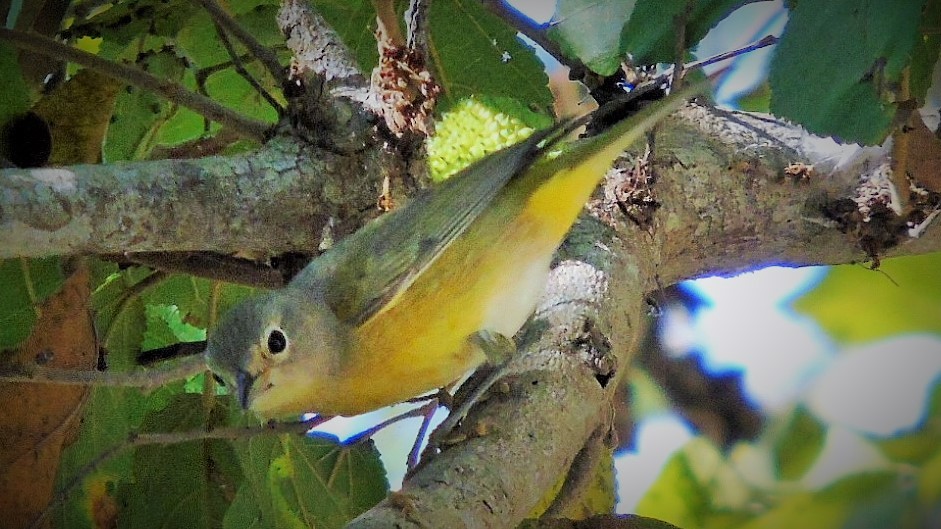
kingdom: Animalia
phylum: Chordata
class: Aves
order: Passeriformes
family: Parulidae
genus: Leiothlypis
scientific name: Leiothlypis ruficapilla
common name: Nashville warbler
